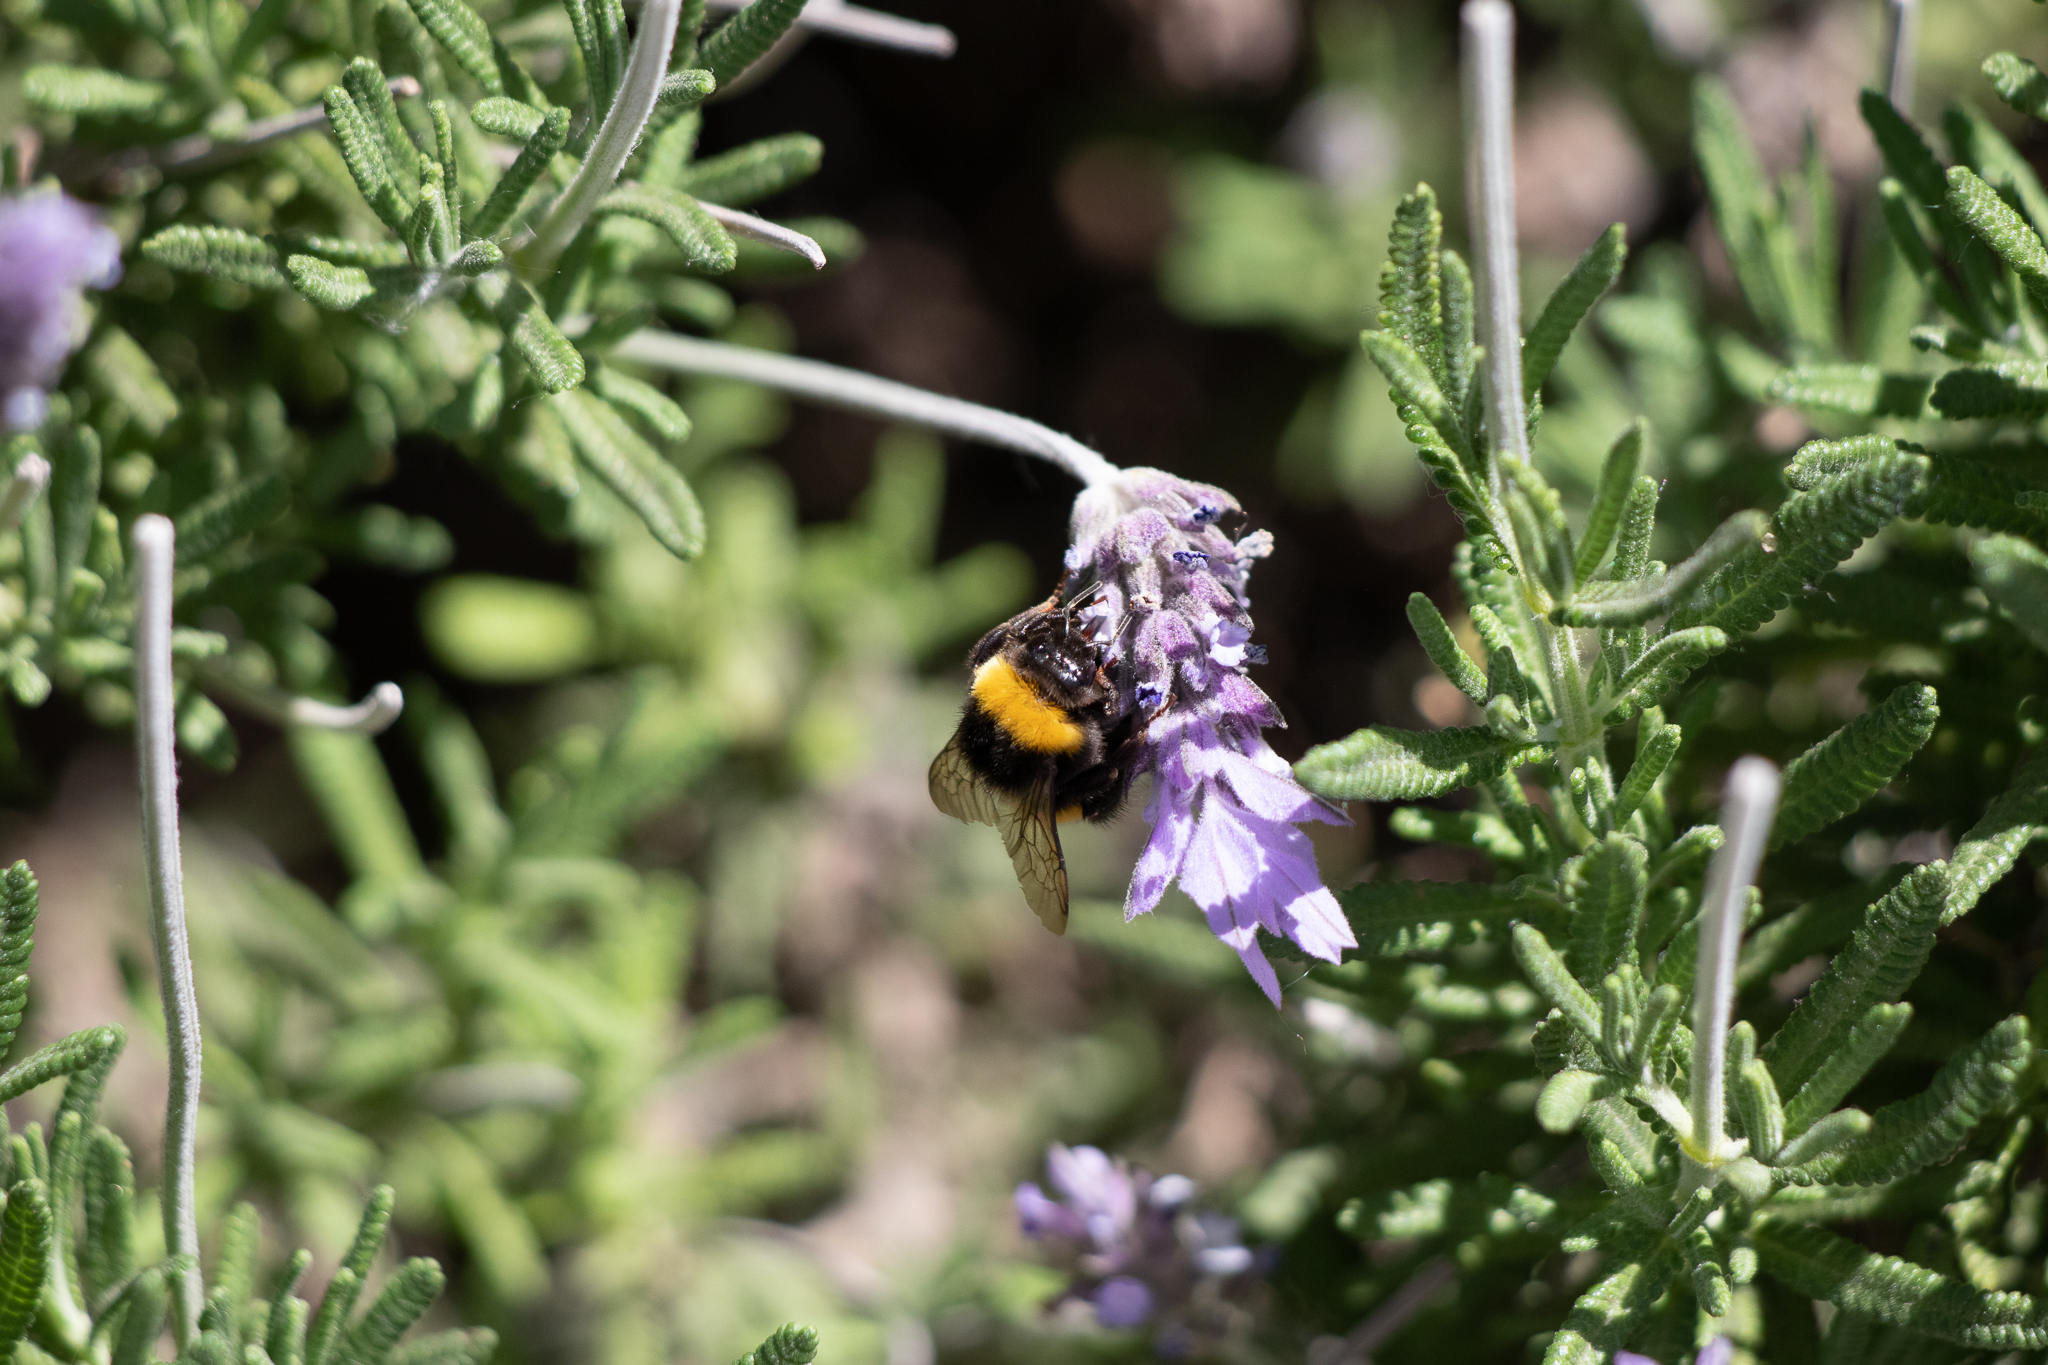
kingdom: Animalia
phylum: Arthropoda
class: Insecta
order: Hymenoptera
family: Apidae
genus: Bombus
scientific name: Bombus terrestris
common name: Buff-tailed bumblebee
